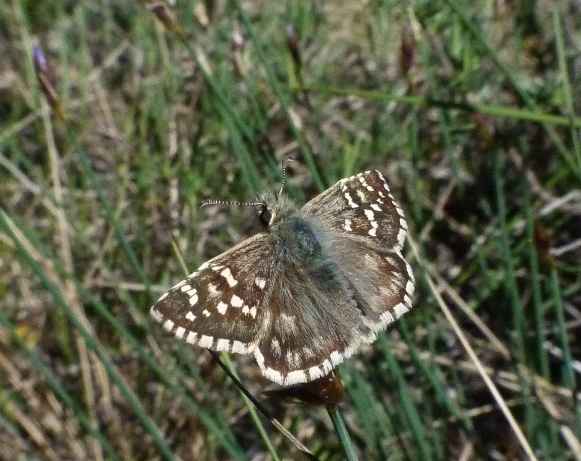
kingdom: Animalia
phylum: Arthropoda
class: Insecta
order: Lepidoptera
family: Hesperiidae
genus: Pyrgus
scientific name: Pyrgus malvoides
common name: Southern grizzled skipper
